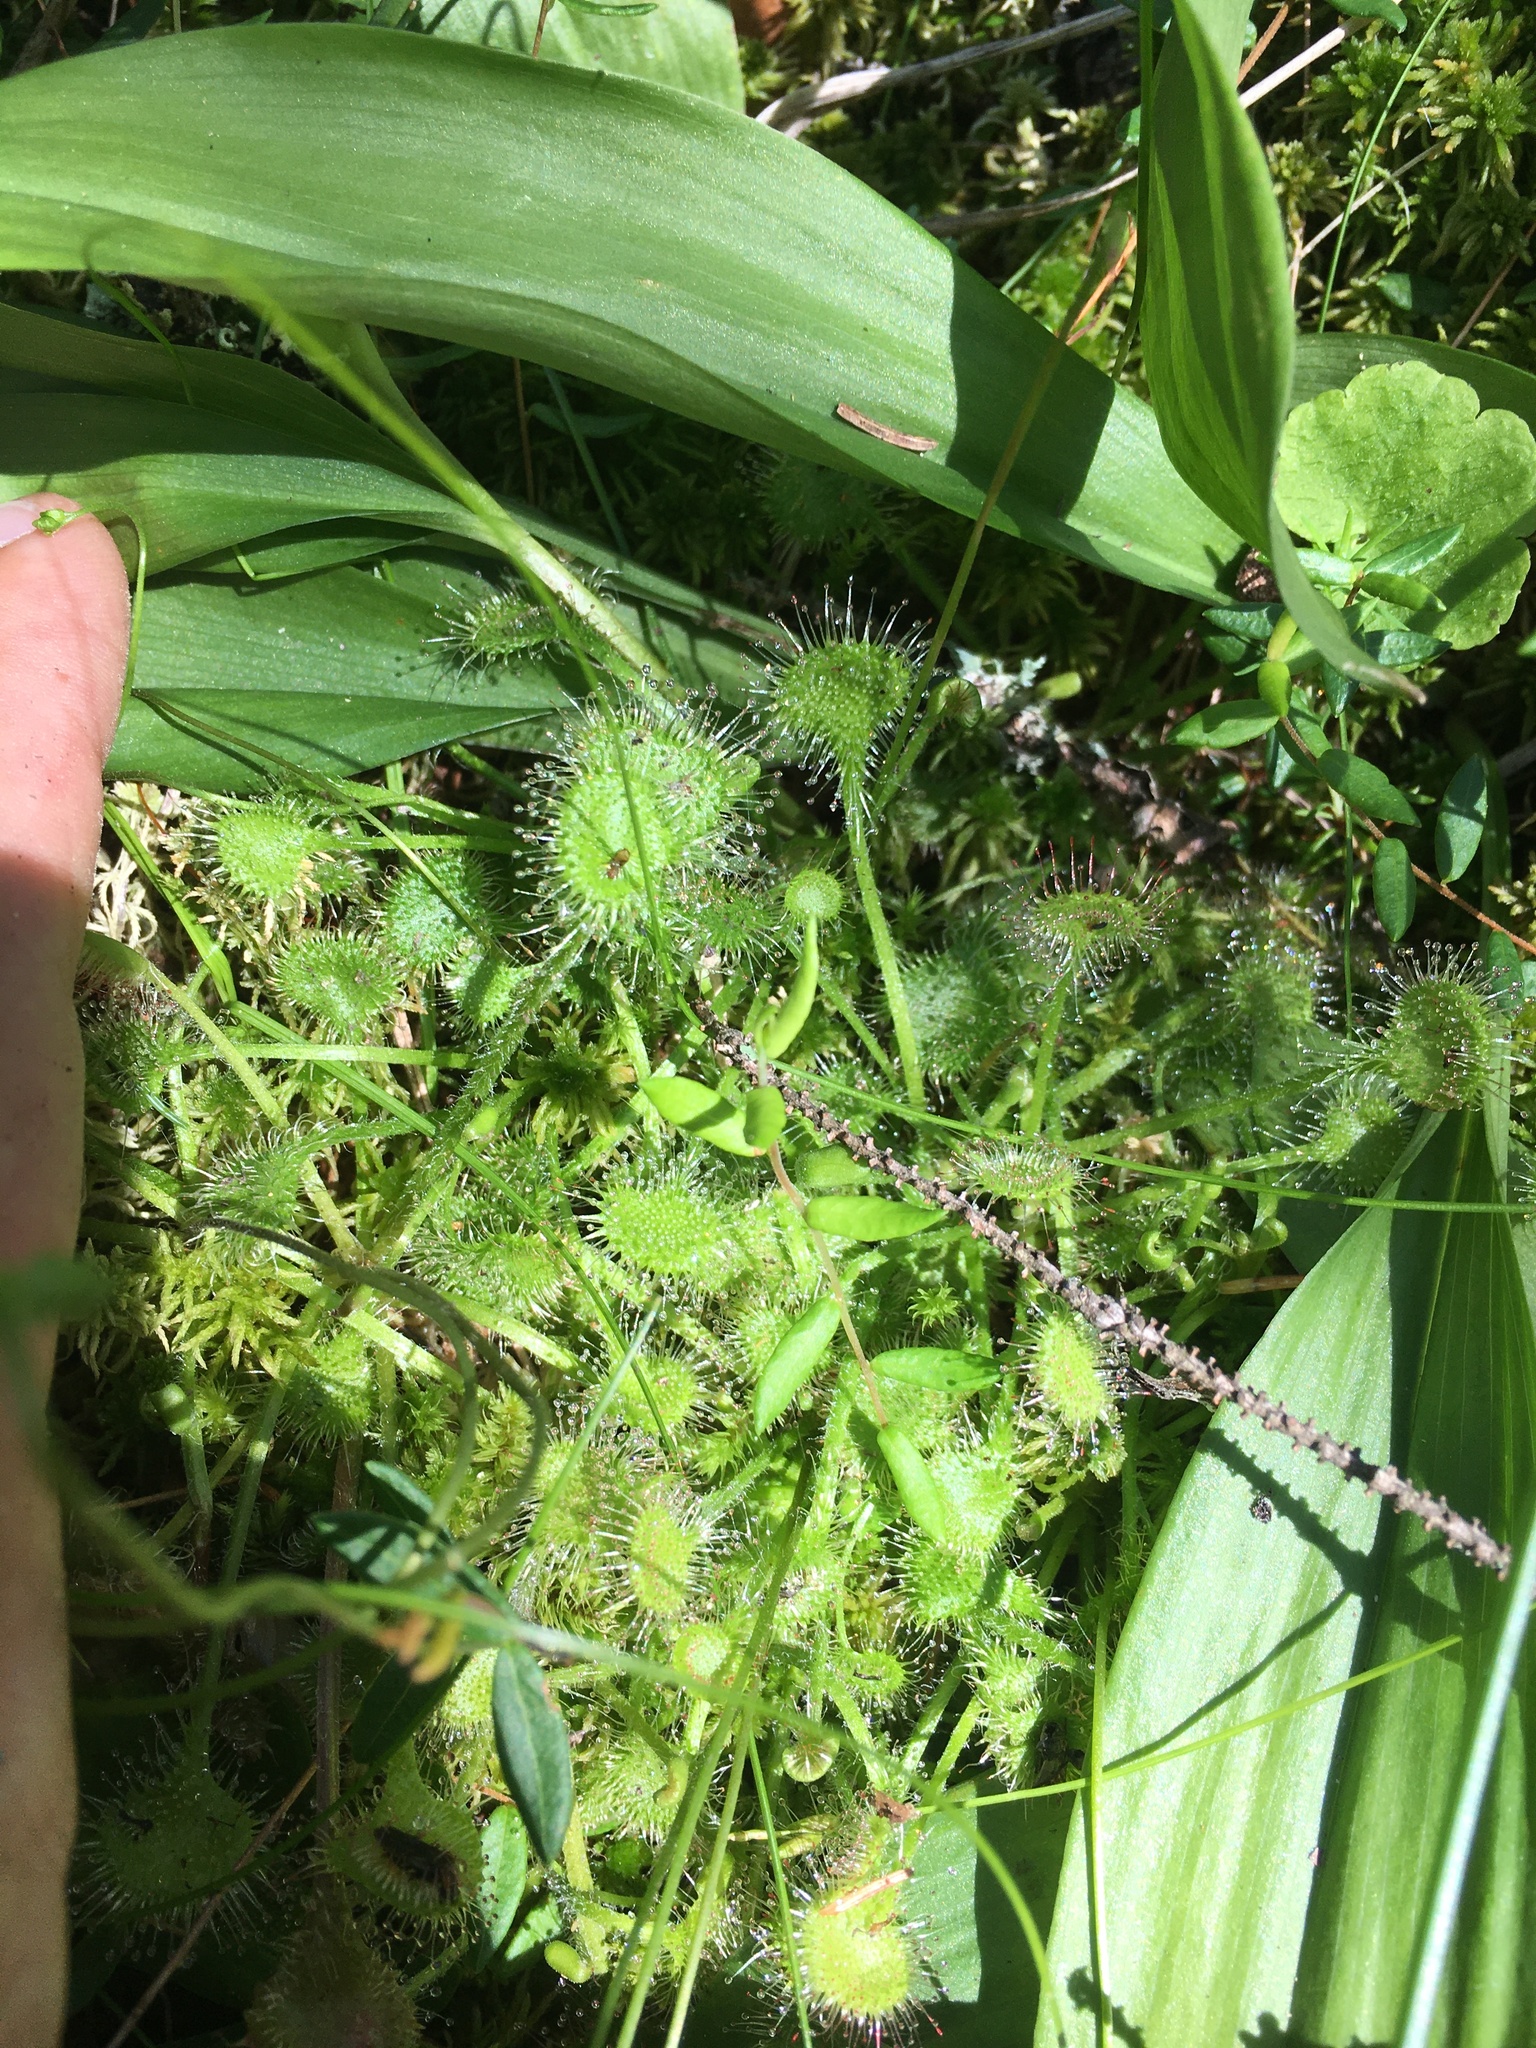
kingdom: Plantae
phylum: Tracheophyta
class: Magnoliopsida
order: Caryophyllales
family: Droseraceae
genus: Drosera
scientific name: Drosera rotundifolia
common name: Round-leaved sundew
